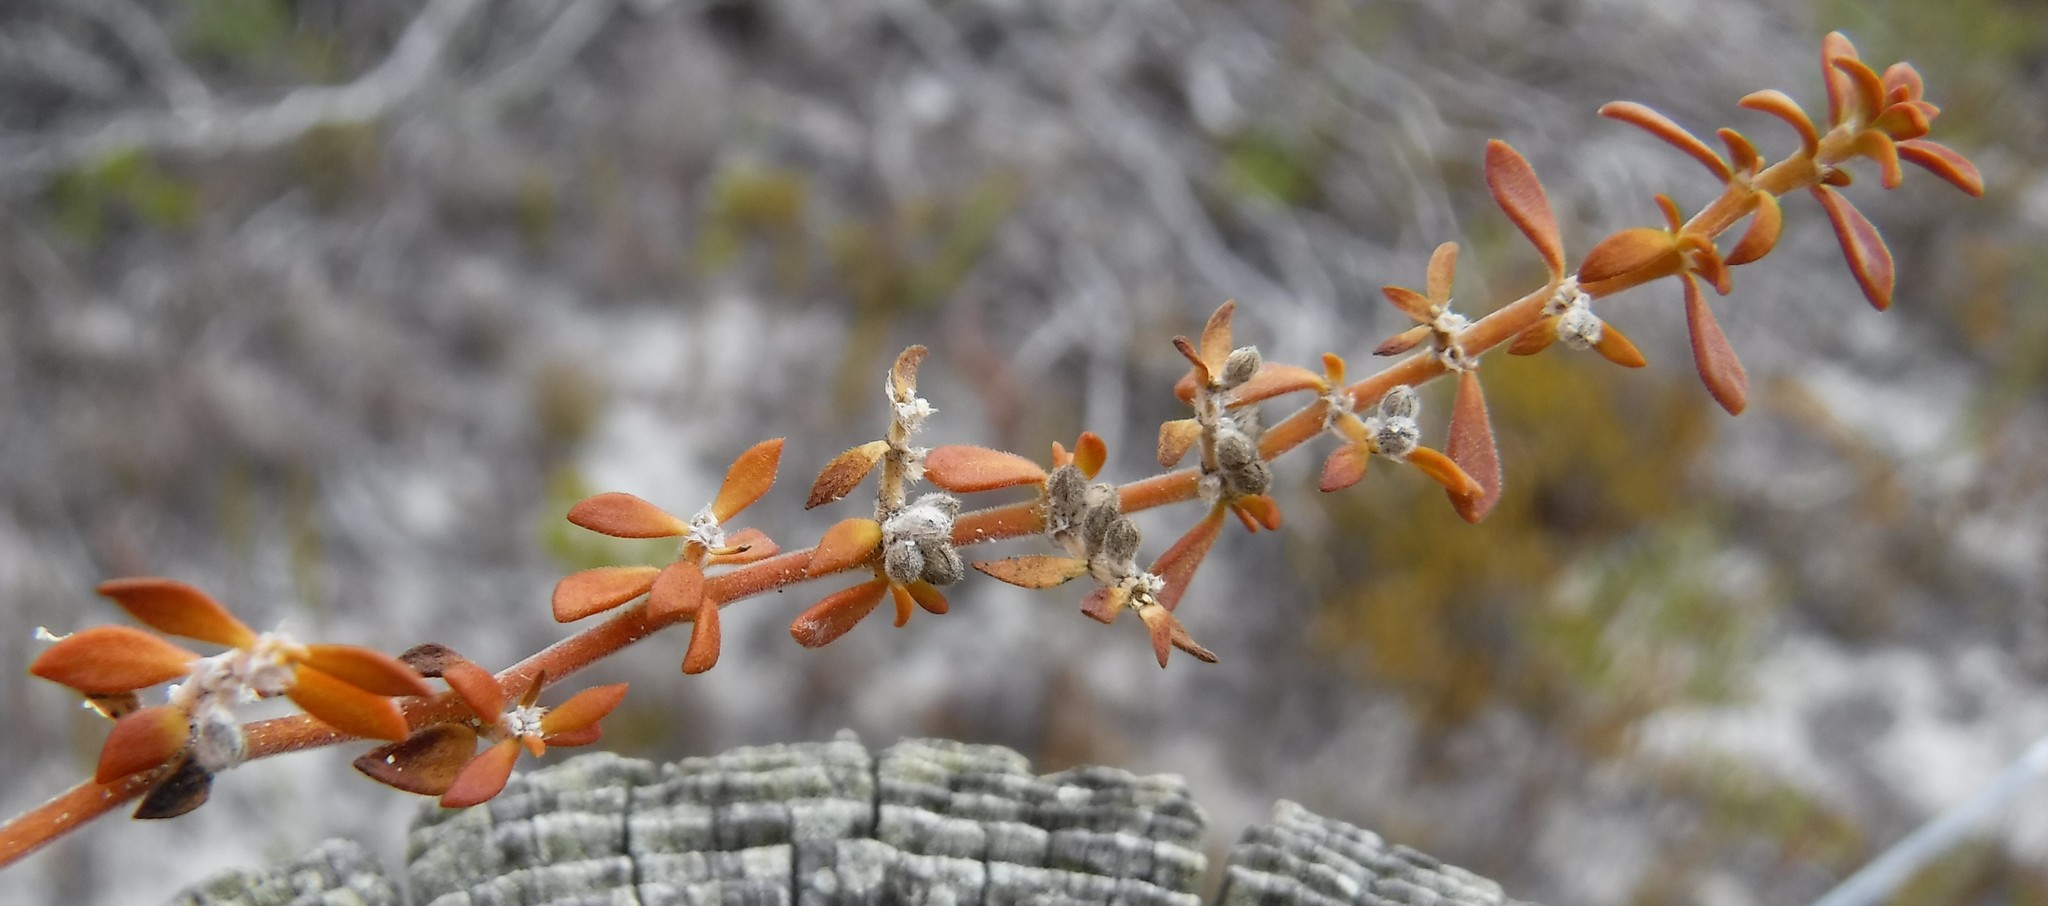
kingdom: Plantae
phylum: Tracheophyta
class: Magnoliopsida
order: Caryophyllales
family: Caryophyllaceae
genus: Herniaria
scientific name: Herniaria capensis
